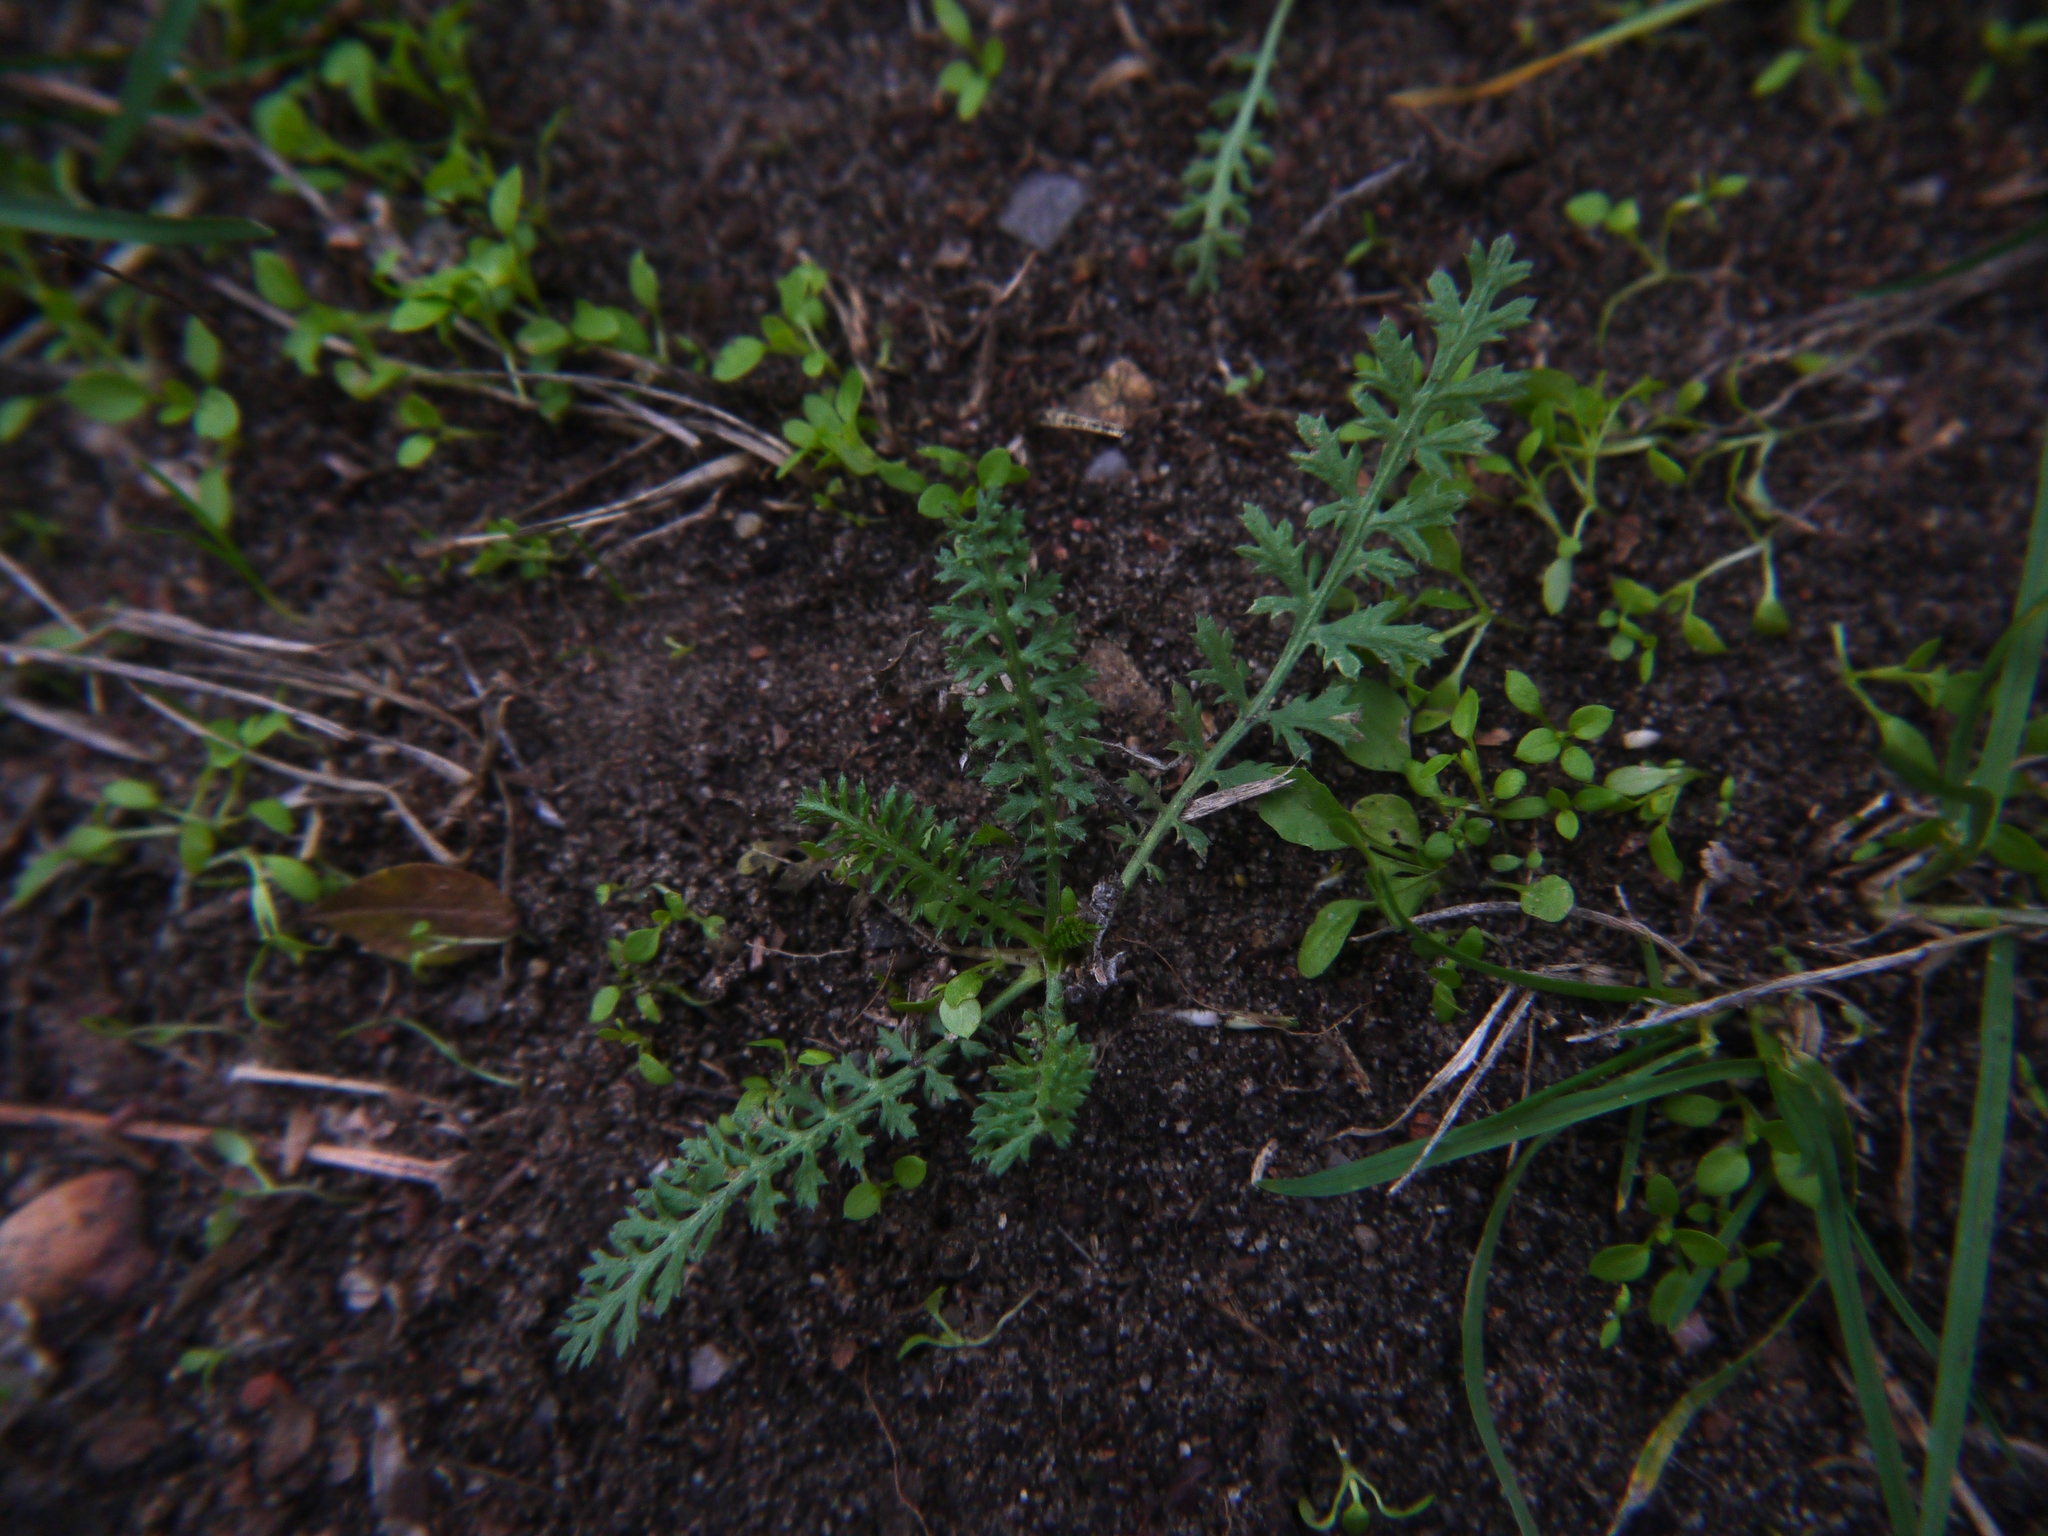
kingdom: Plantae
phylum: Tracheophyta
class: Magnoliopsida
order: Asterales
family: Asteraceae
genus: Achillea
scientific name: Achillea millefolium
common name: Yarrow
